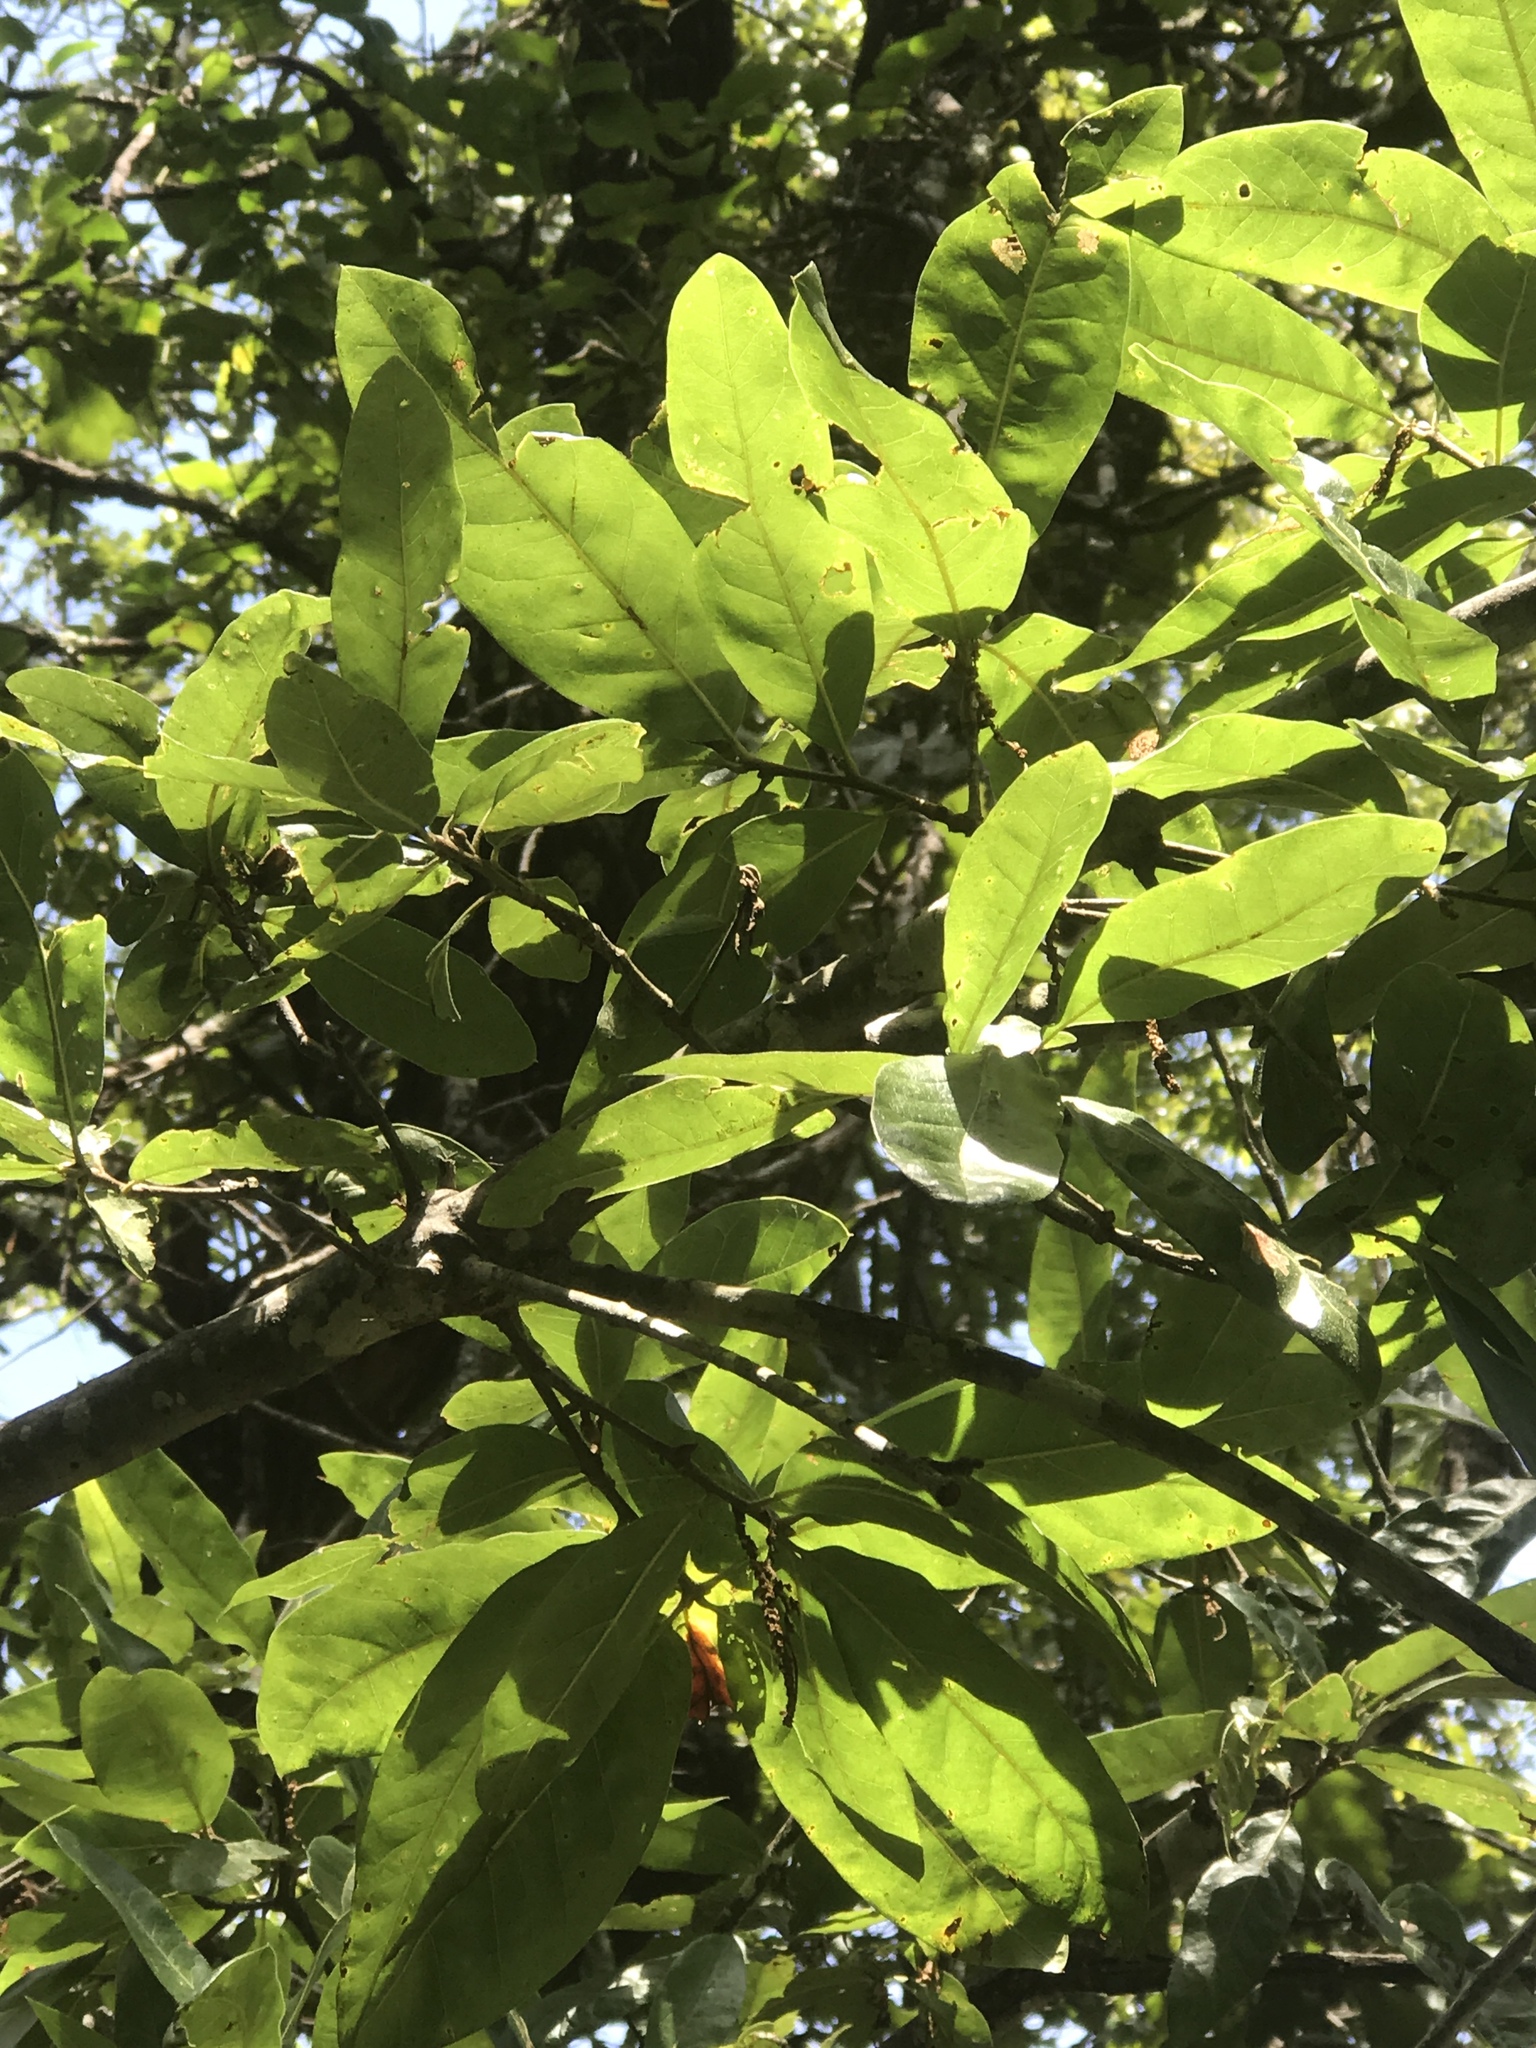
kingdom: Plantae
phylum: Tracheophyta
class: Magnoliopsida
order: Fagales
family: Fagaceae
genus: Quercus
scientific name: Quercus rudkinii
